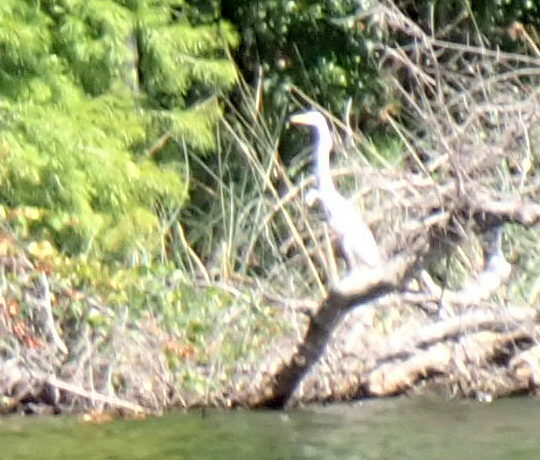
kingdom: Animalia
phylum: Chordata
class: Aves
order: Pelecaniformes
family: Ardeidae
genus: Ardea
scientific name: Ardea alba
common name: Great egret
